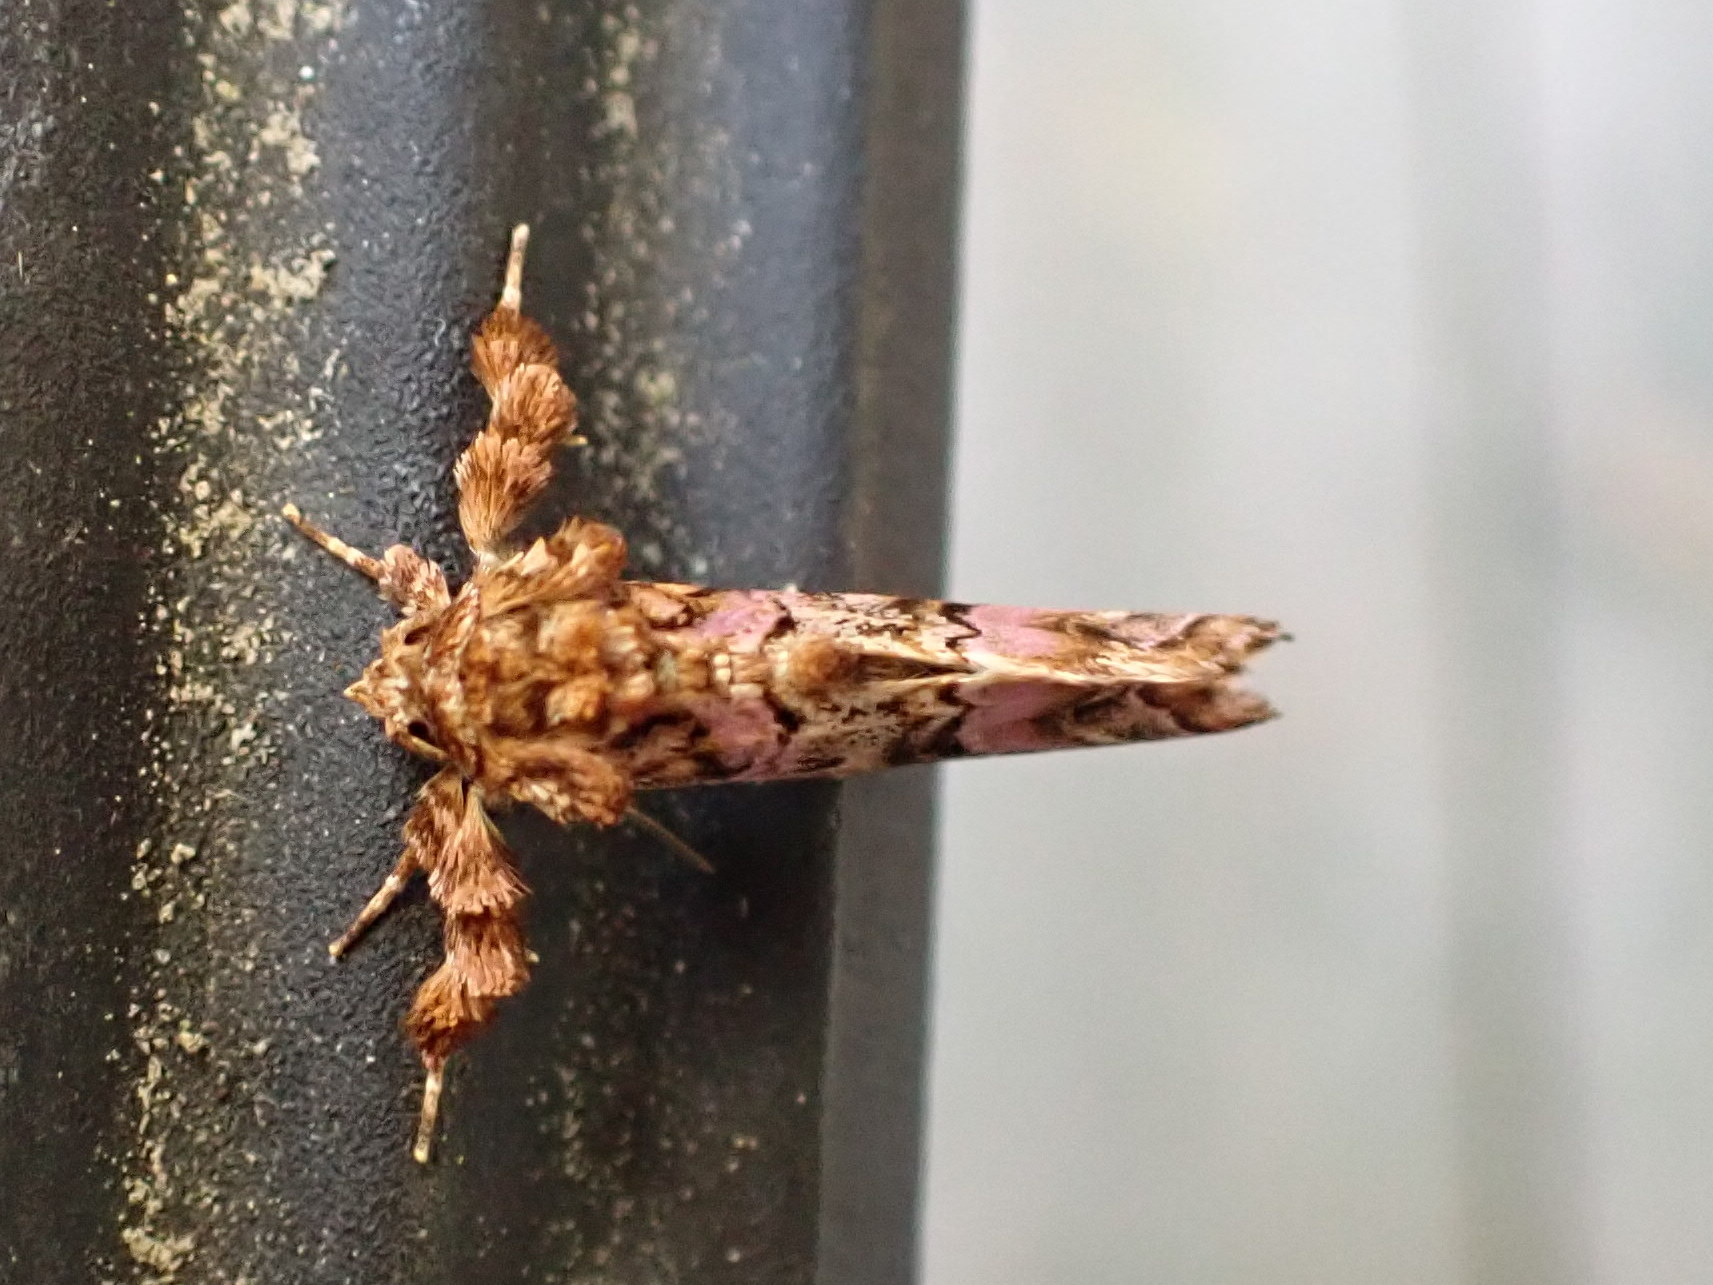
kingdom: Animalia
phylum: Arthropoda
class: Insecta
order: Lepidoptera
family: Noctuidae
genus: Callopistria
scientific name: Callopistria mollissima
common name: Pink-shaded fern moth
